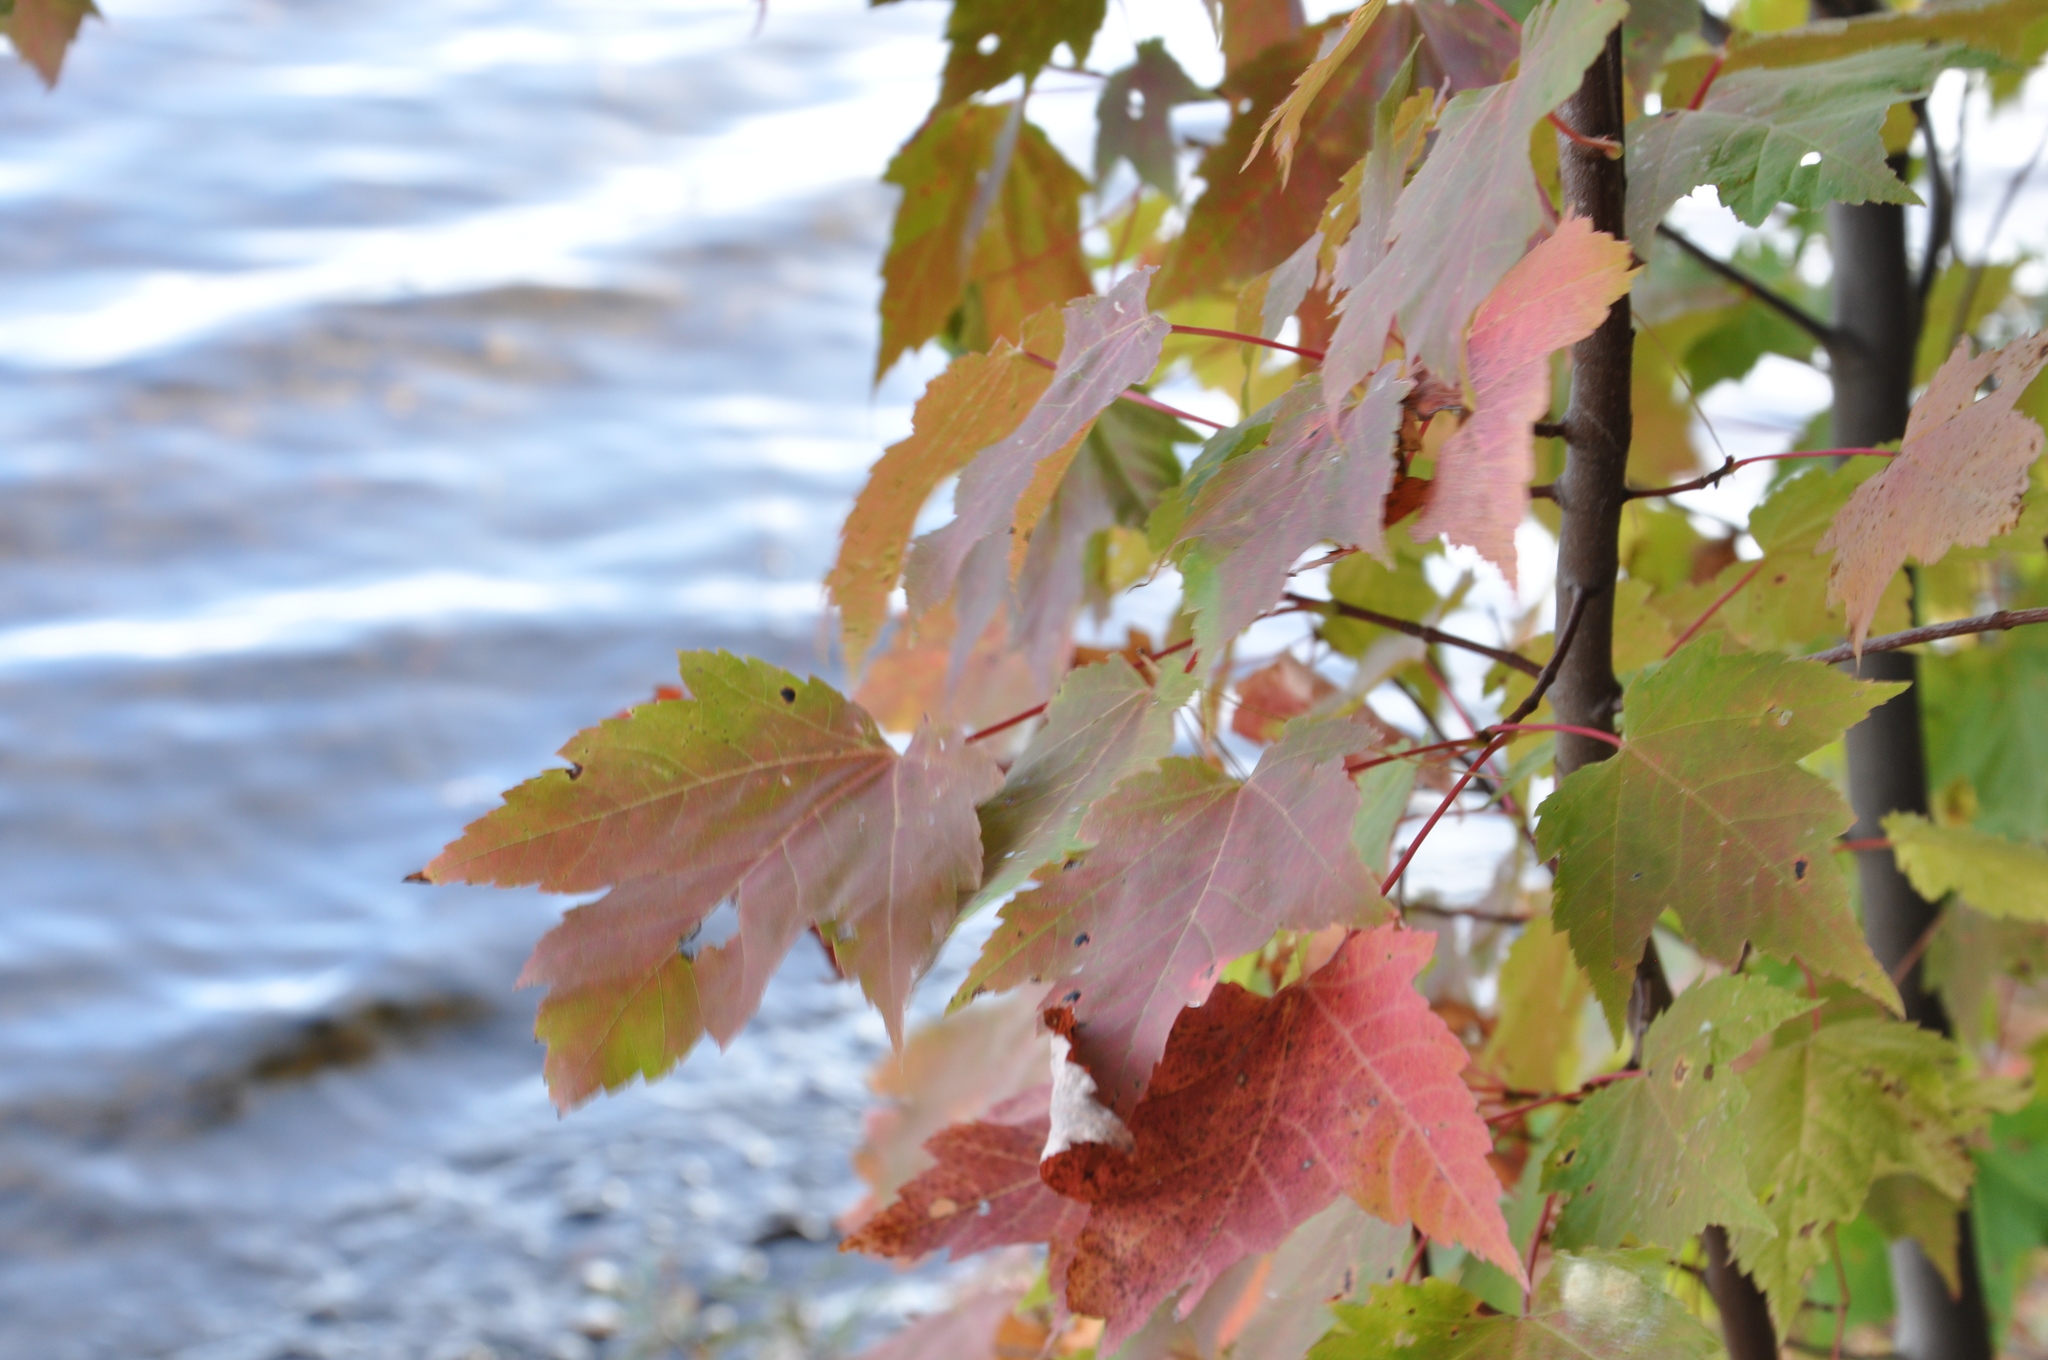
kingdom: Plantae
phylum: Tracheophyta
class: Magnoliopsida
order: Sapindales
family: Sapindaceae
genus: Acer
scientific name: Acer rubrum
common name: Red maple
